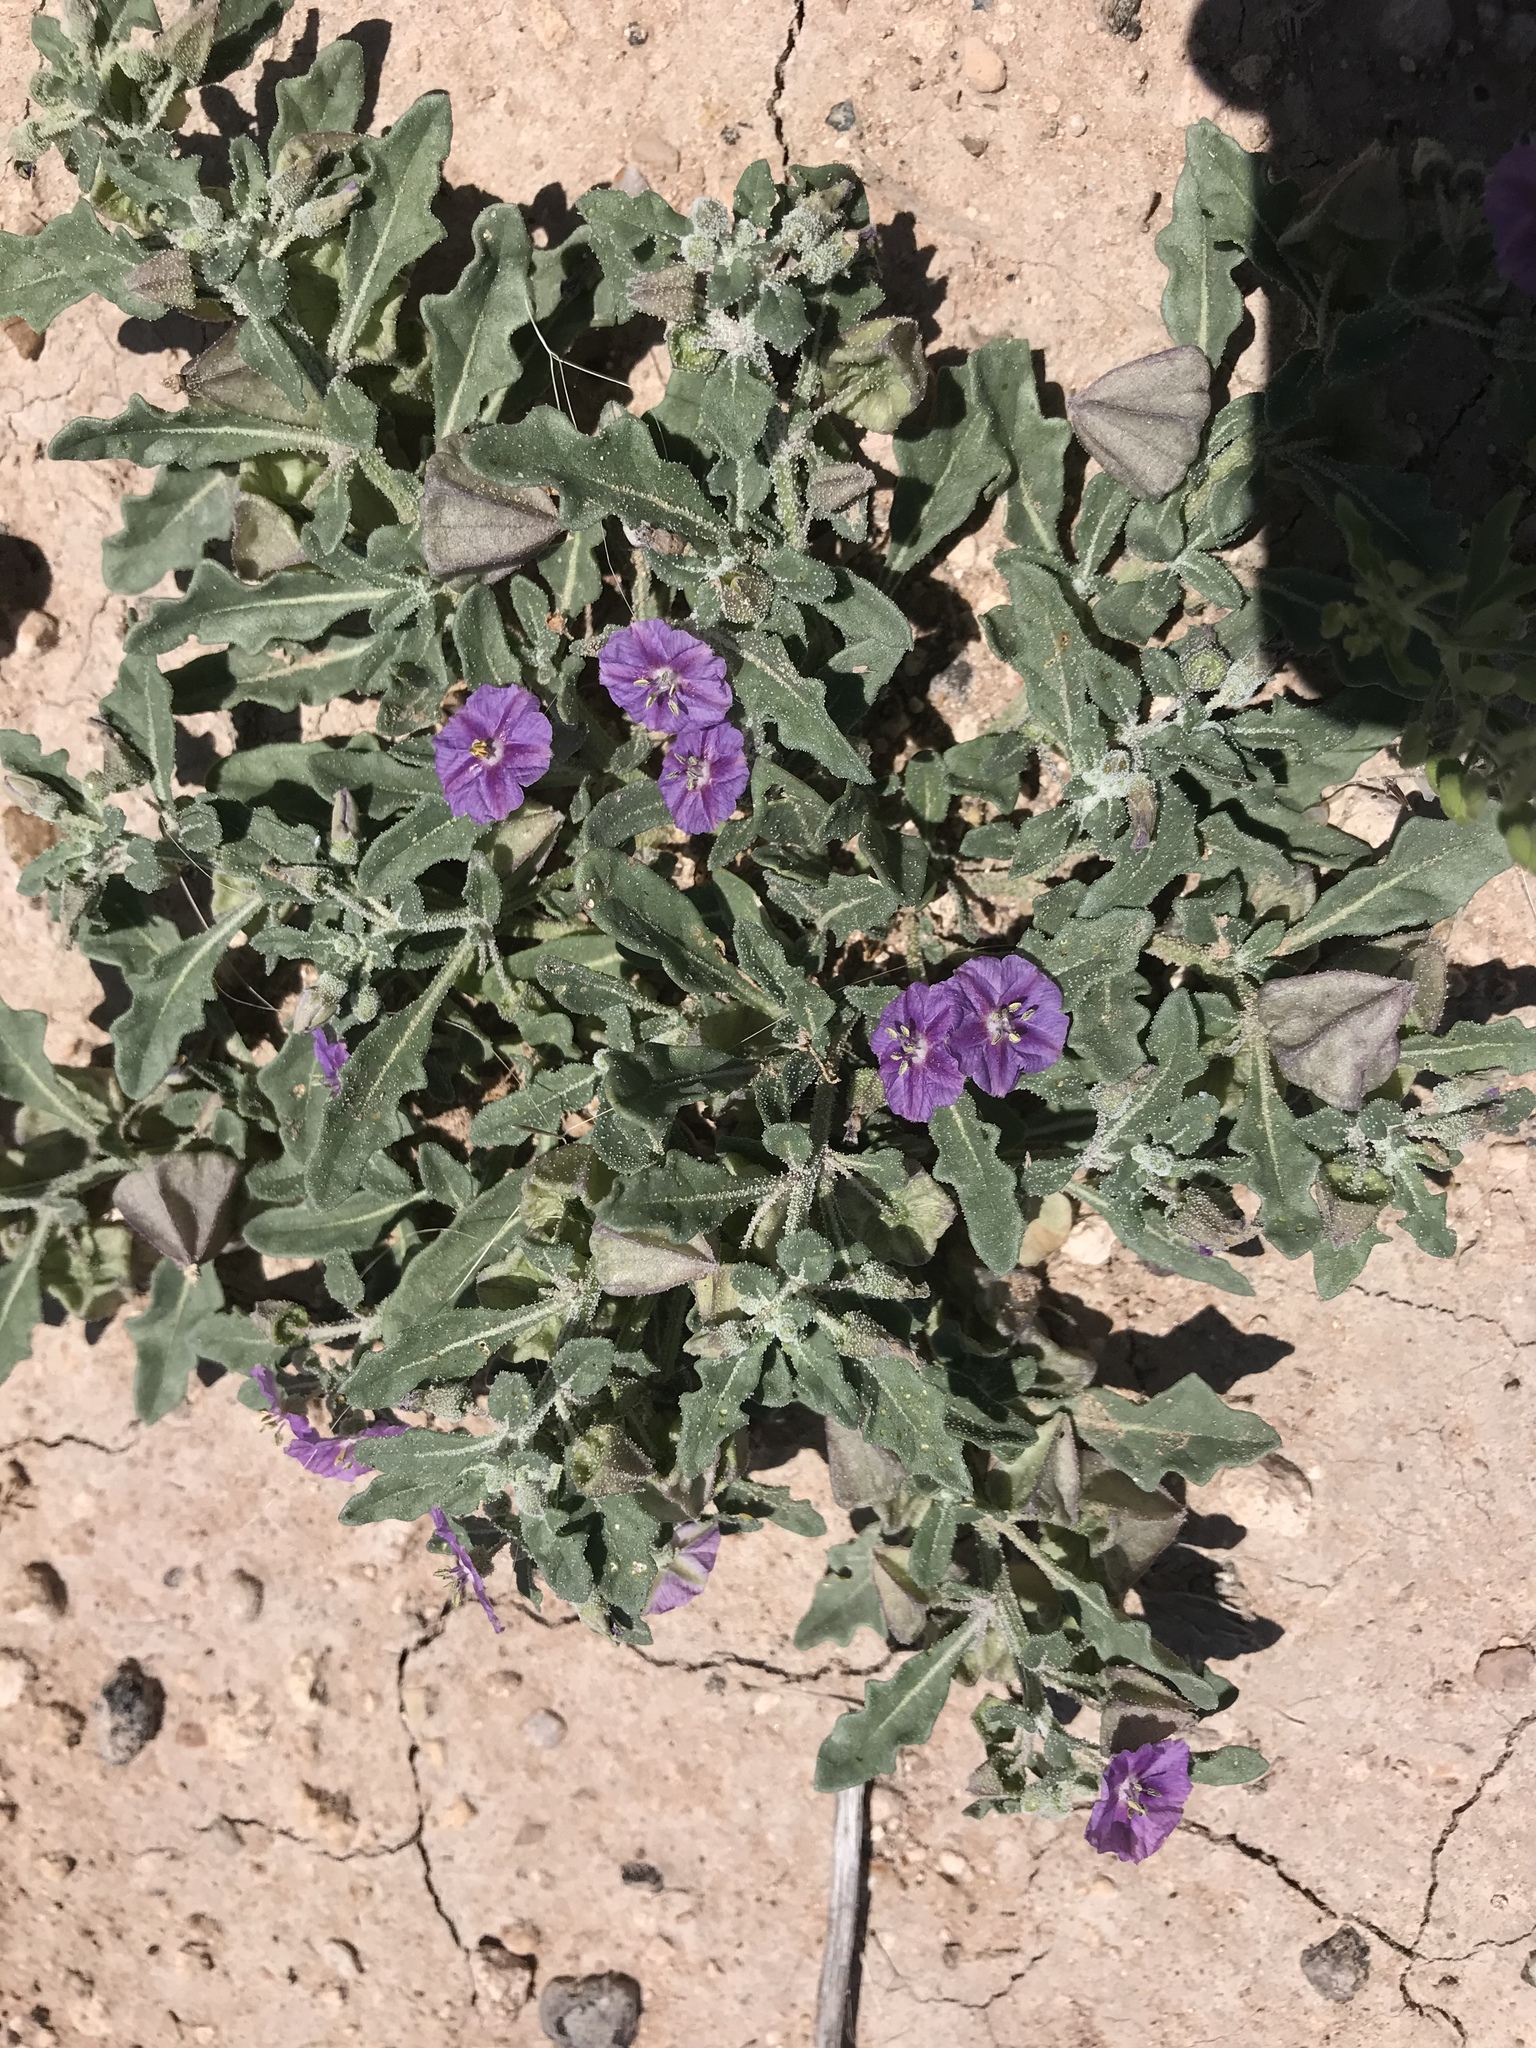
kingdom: Plantae
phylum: Tracheophyta
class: Magnoliopsida
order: Solanales
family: Solanaceae
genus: Quincula
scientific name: Quincula lobata
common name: Purple-ground-cherry
